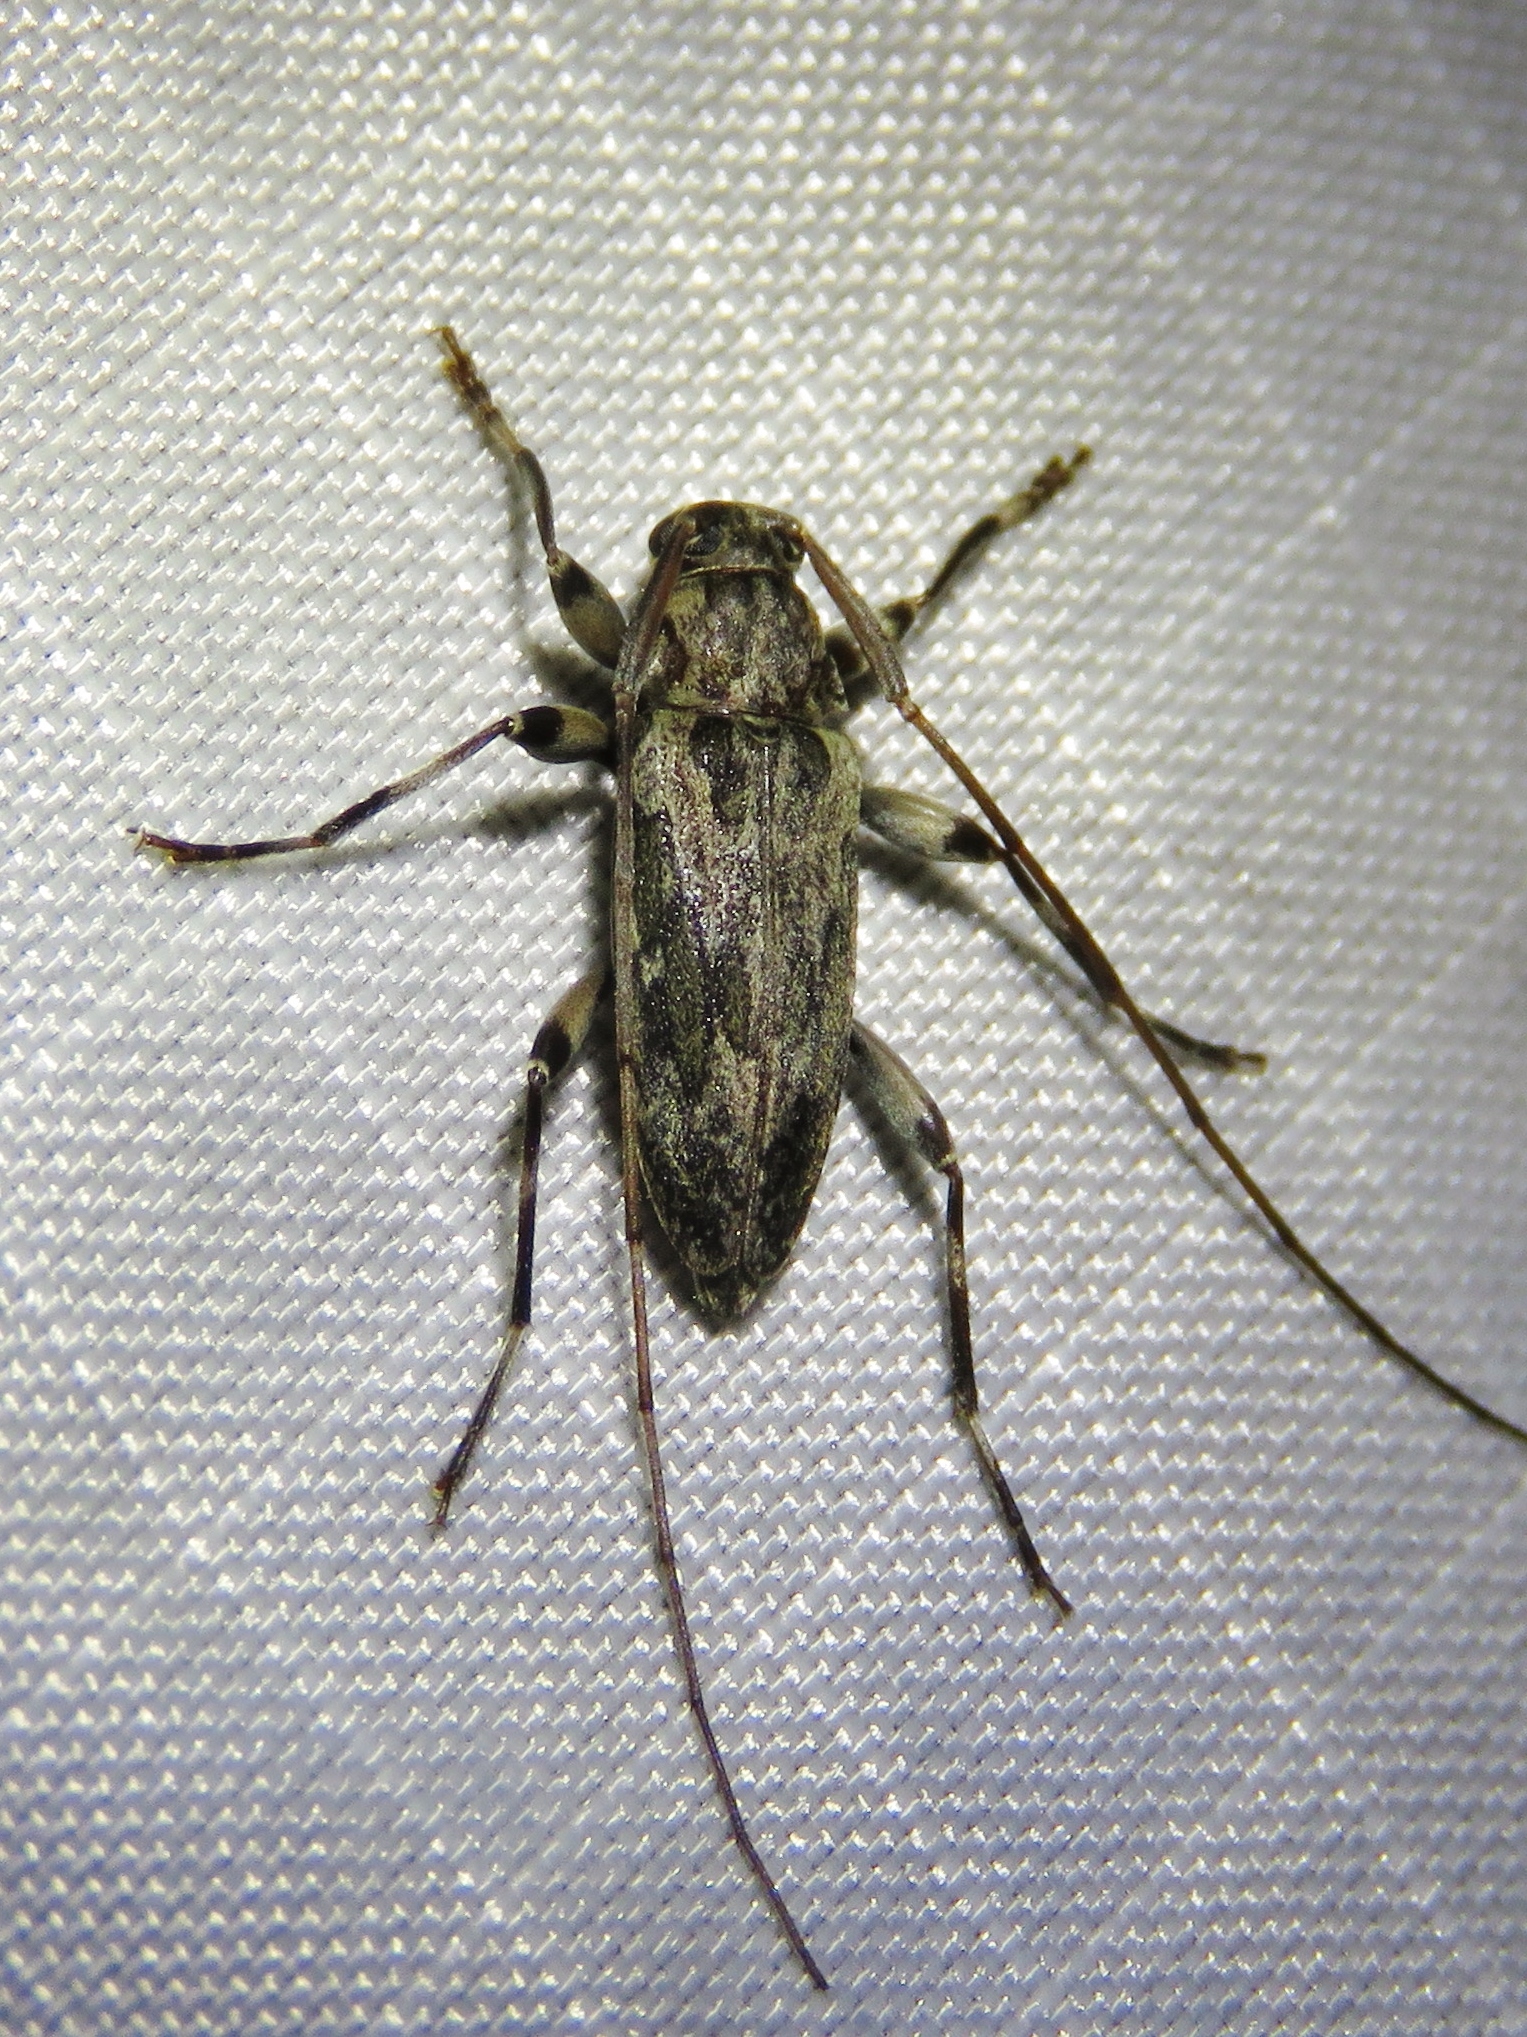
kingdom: Animalia
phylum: Arthropoda
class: Insecta
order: Coleoptera
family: Cerambycidae
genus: Lepturges
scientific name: Lepturges confluens
